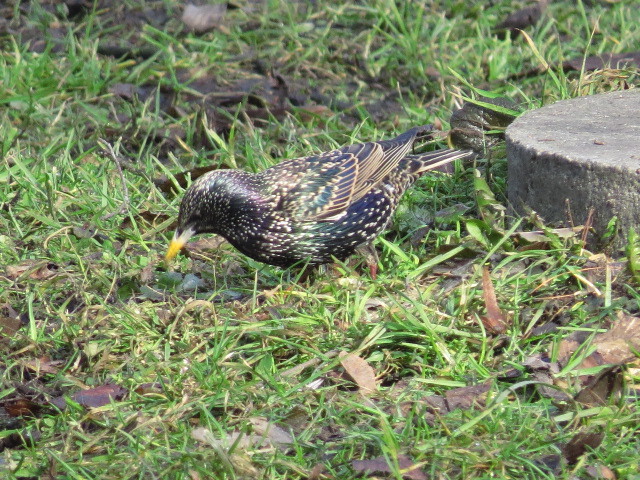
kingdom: Animalia
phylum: Chordata
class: Aves
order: Passeriformes
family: Sturnidae
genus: Sturnus
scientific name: Sturnus vulgaris
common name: Common starling
